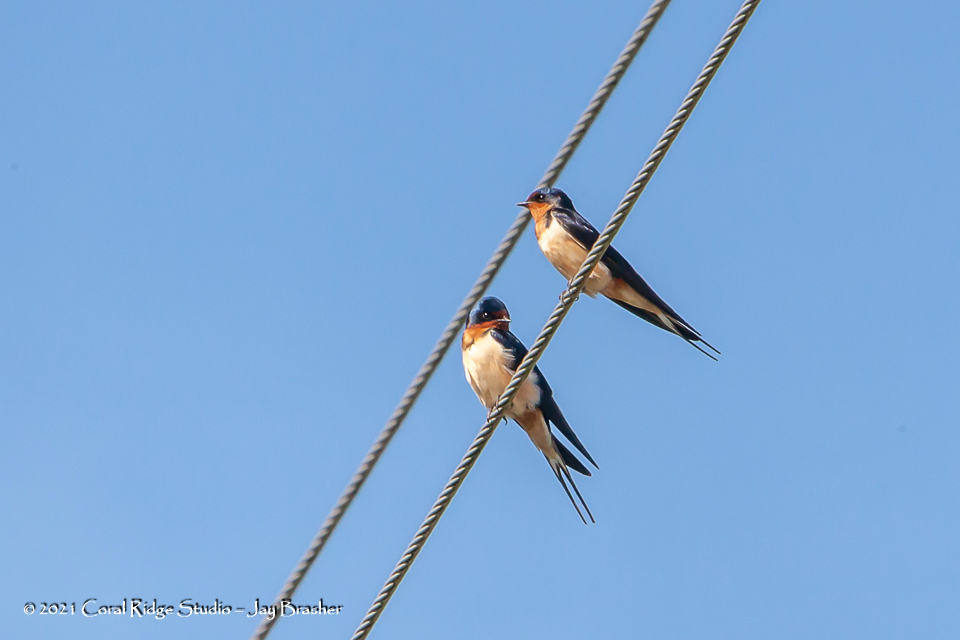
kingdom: Animalia
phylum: Chordata
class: Aves
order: Passeriformes
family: Hirundinidae
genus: Hirundo
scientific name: Hirundo rustica
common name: Barn swallow
